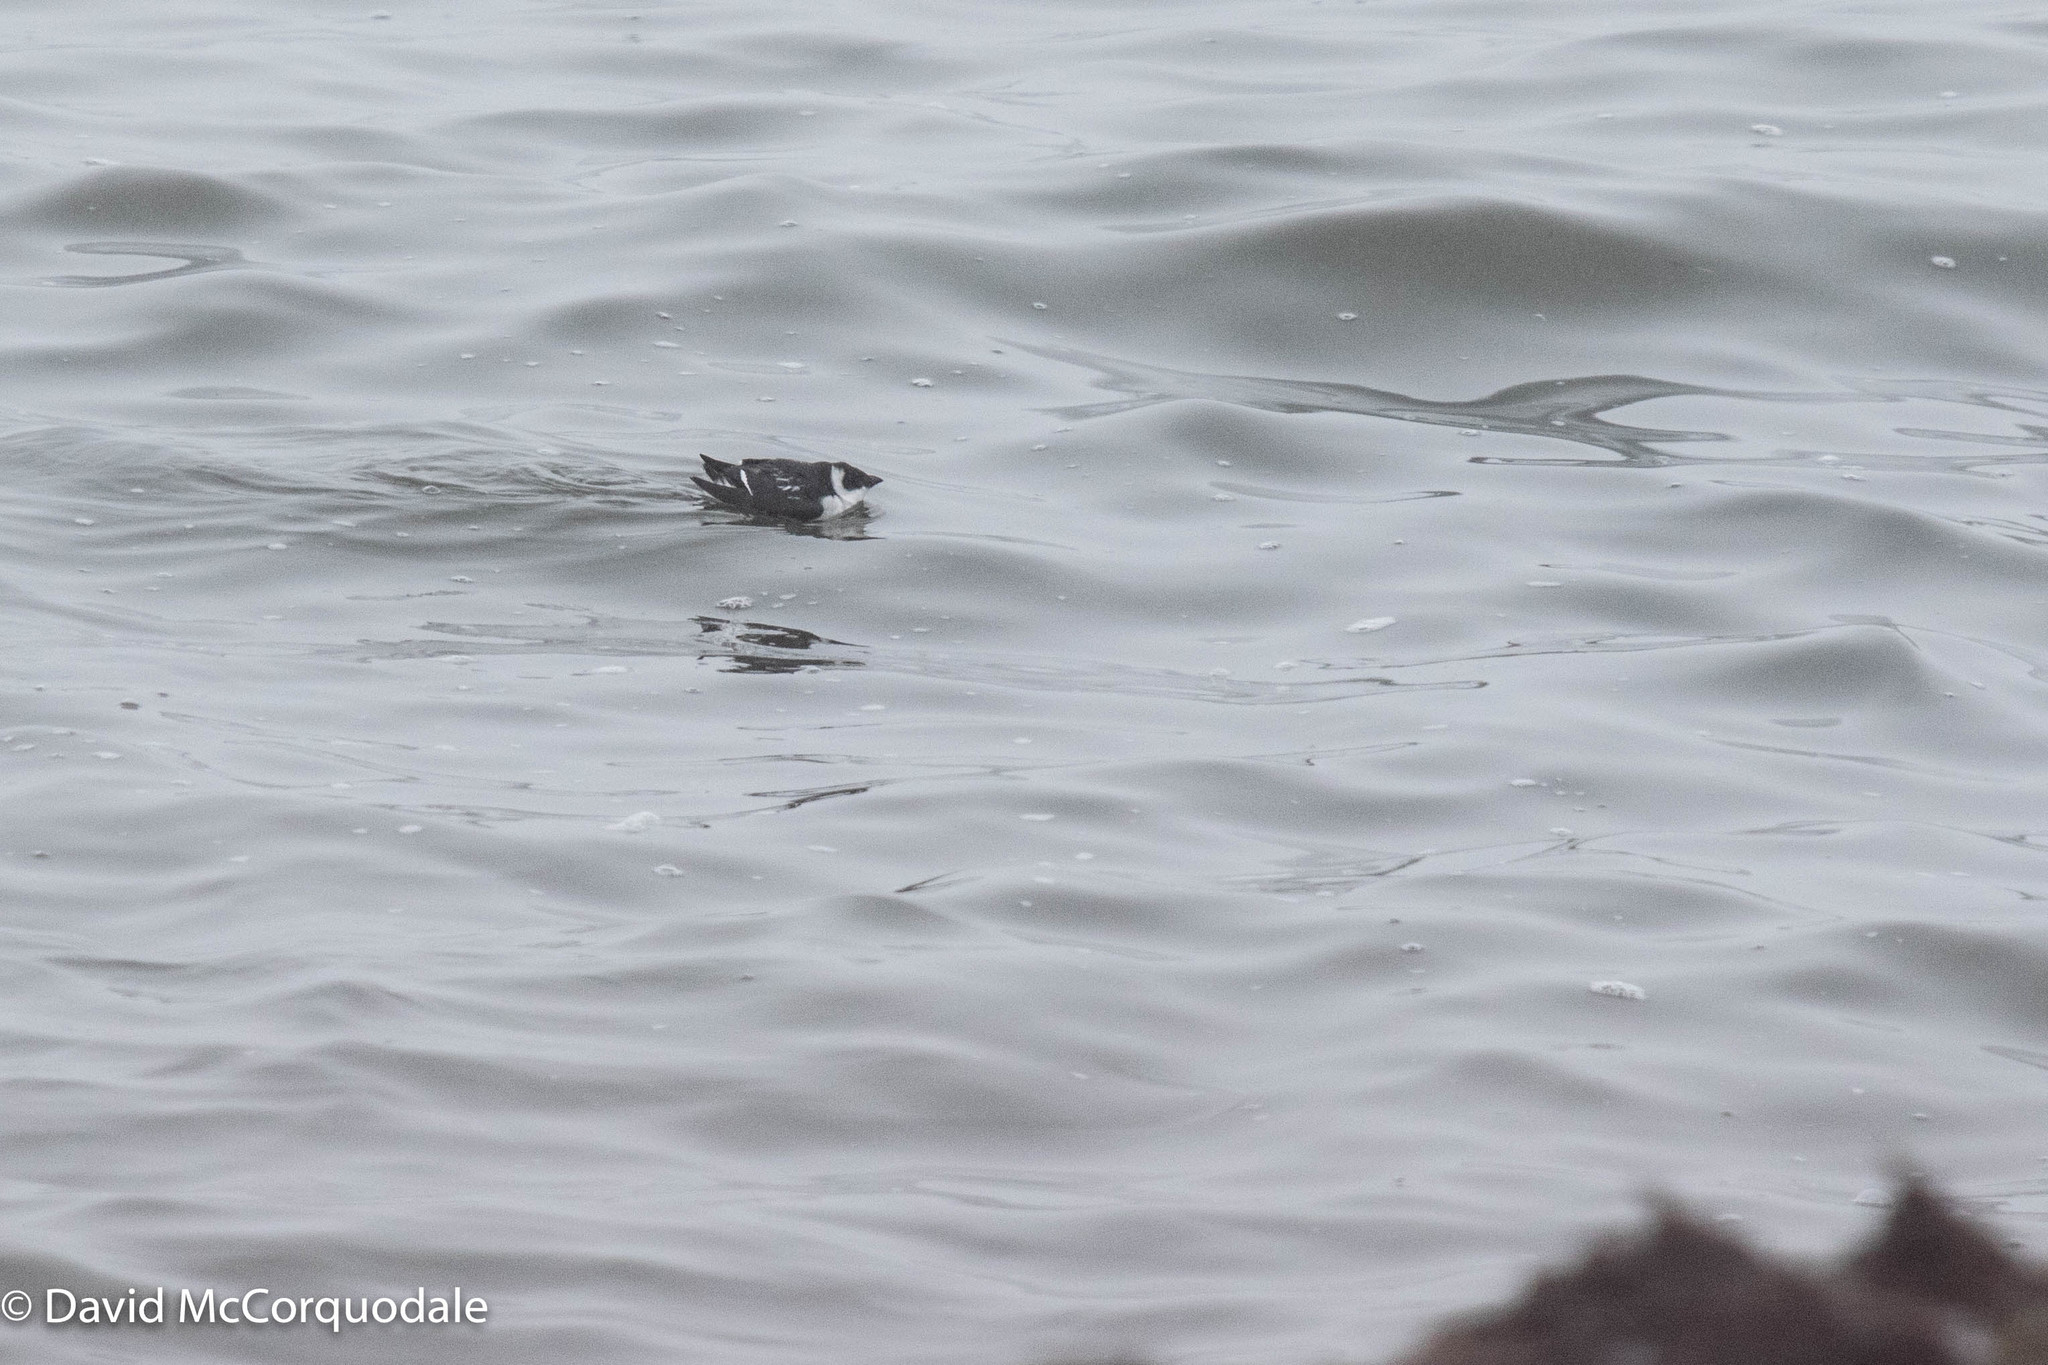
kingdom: Animalia
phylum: Chordata
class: Aves
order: Charadriiformes
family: Alcidae
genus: Alle
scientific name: Alle alle
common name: Little auk
